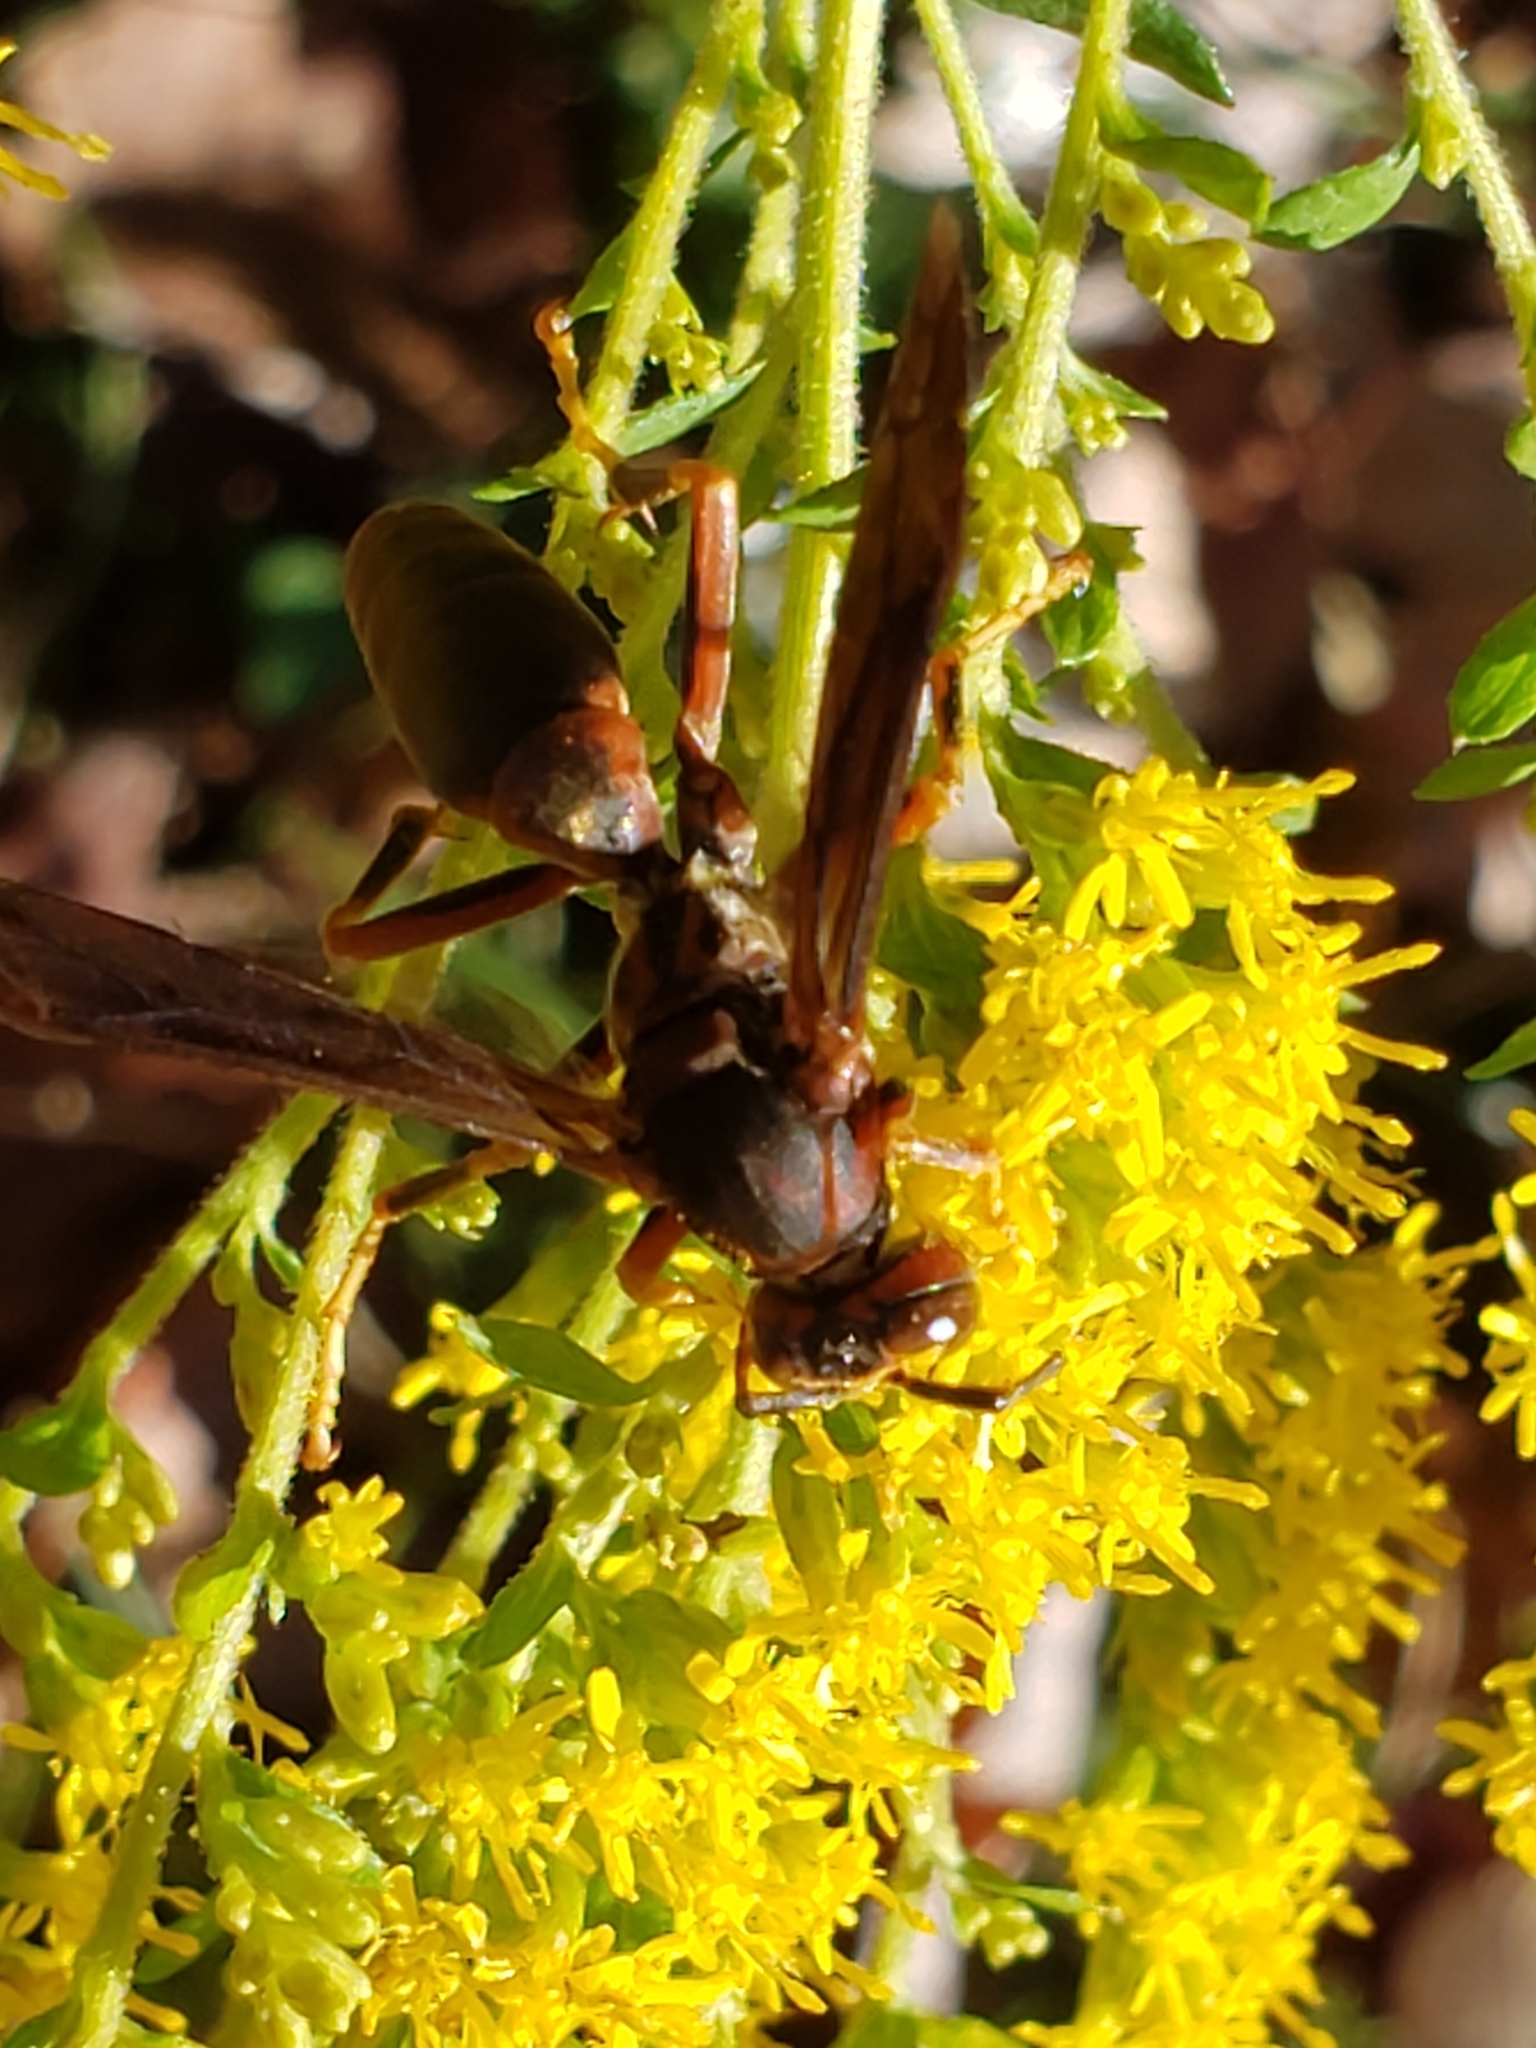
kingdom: Animalia
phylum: Arthropoda
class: Insecta
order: Hymenoptera
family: Eumenidae
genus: Polistes
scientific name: Polistes metricus
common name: Metric paper wasp
